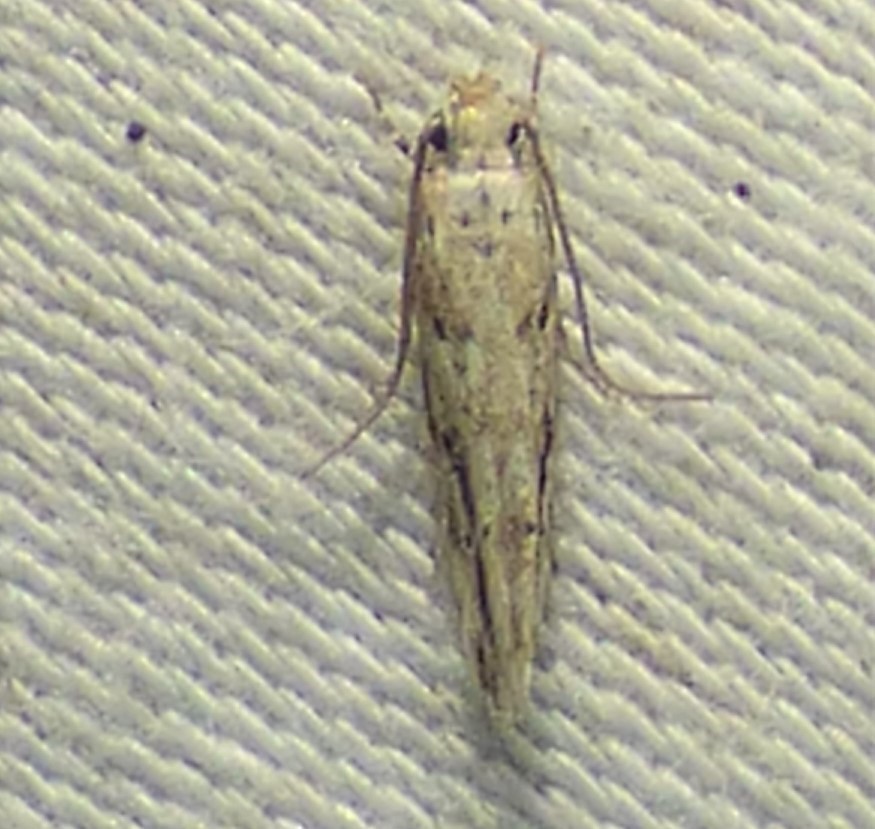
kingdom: Animalia
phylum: Arthropoda
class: Insecta
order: Lepidoptera
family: Momphidae
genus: Mompha
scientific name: Mompha brevivittella
